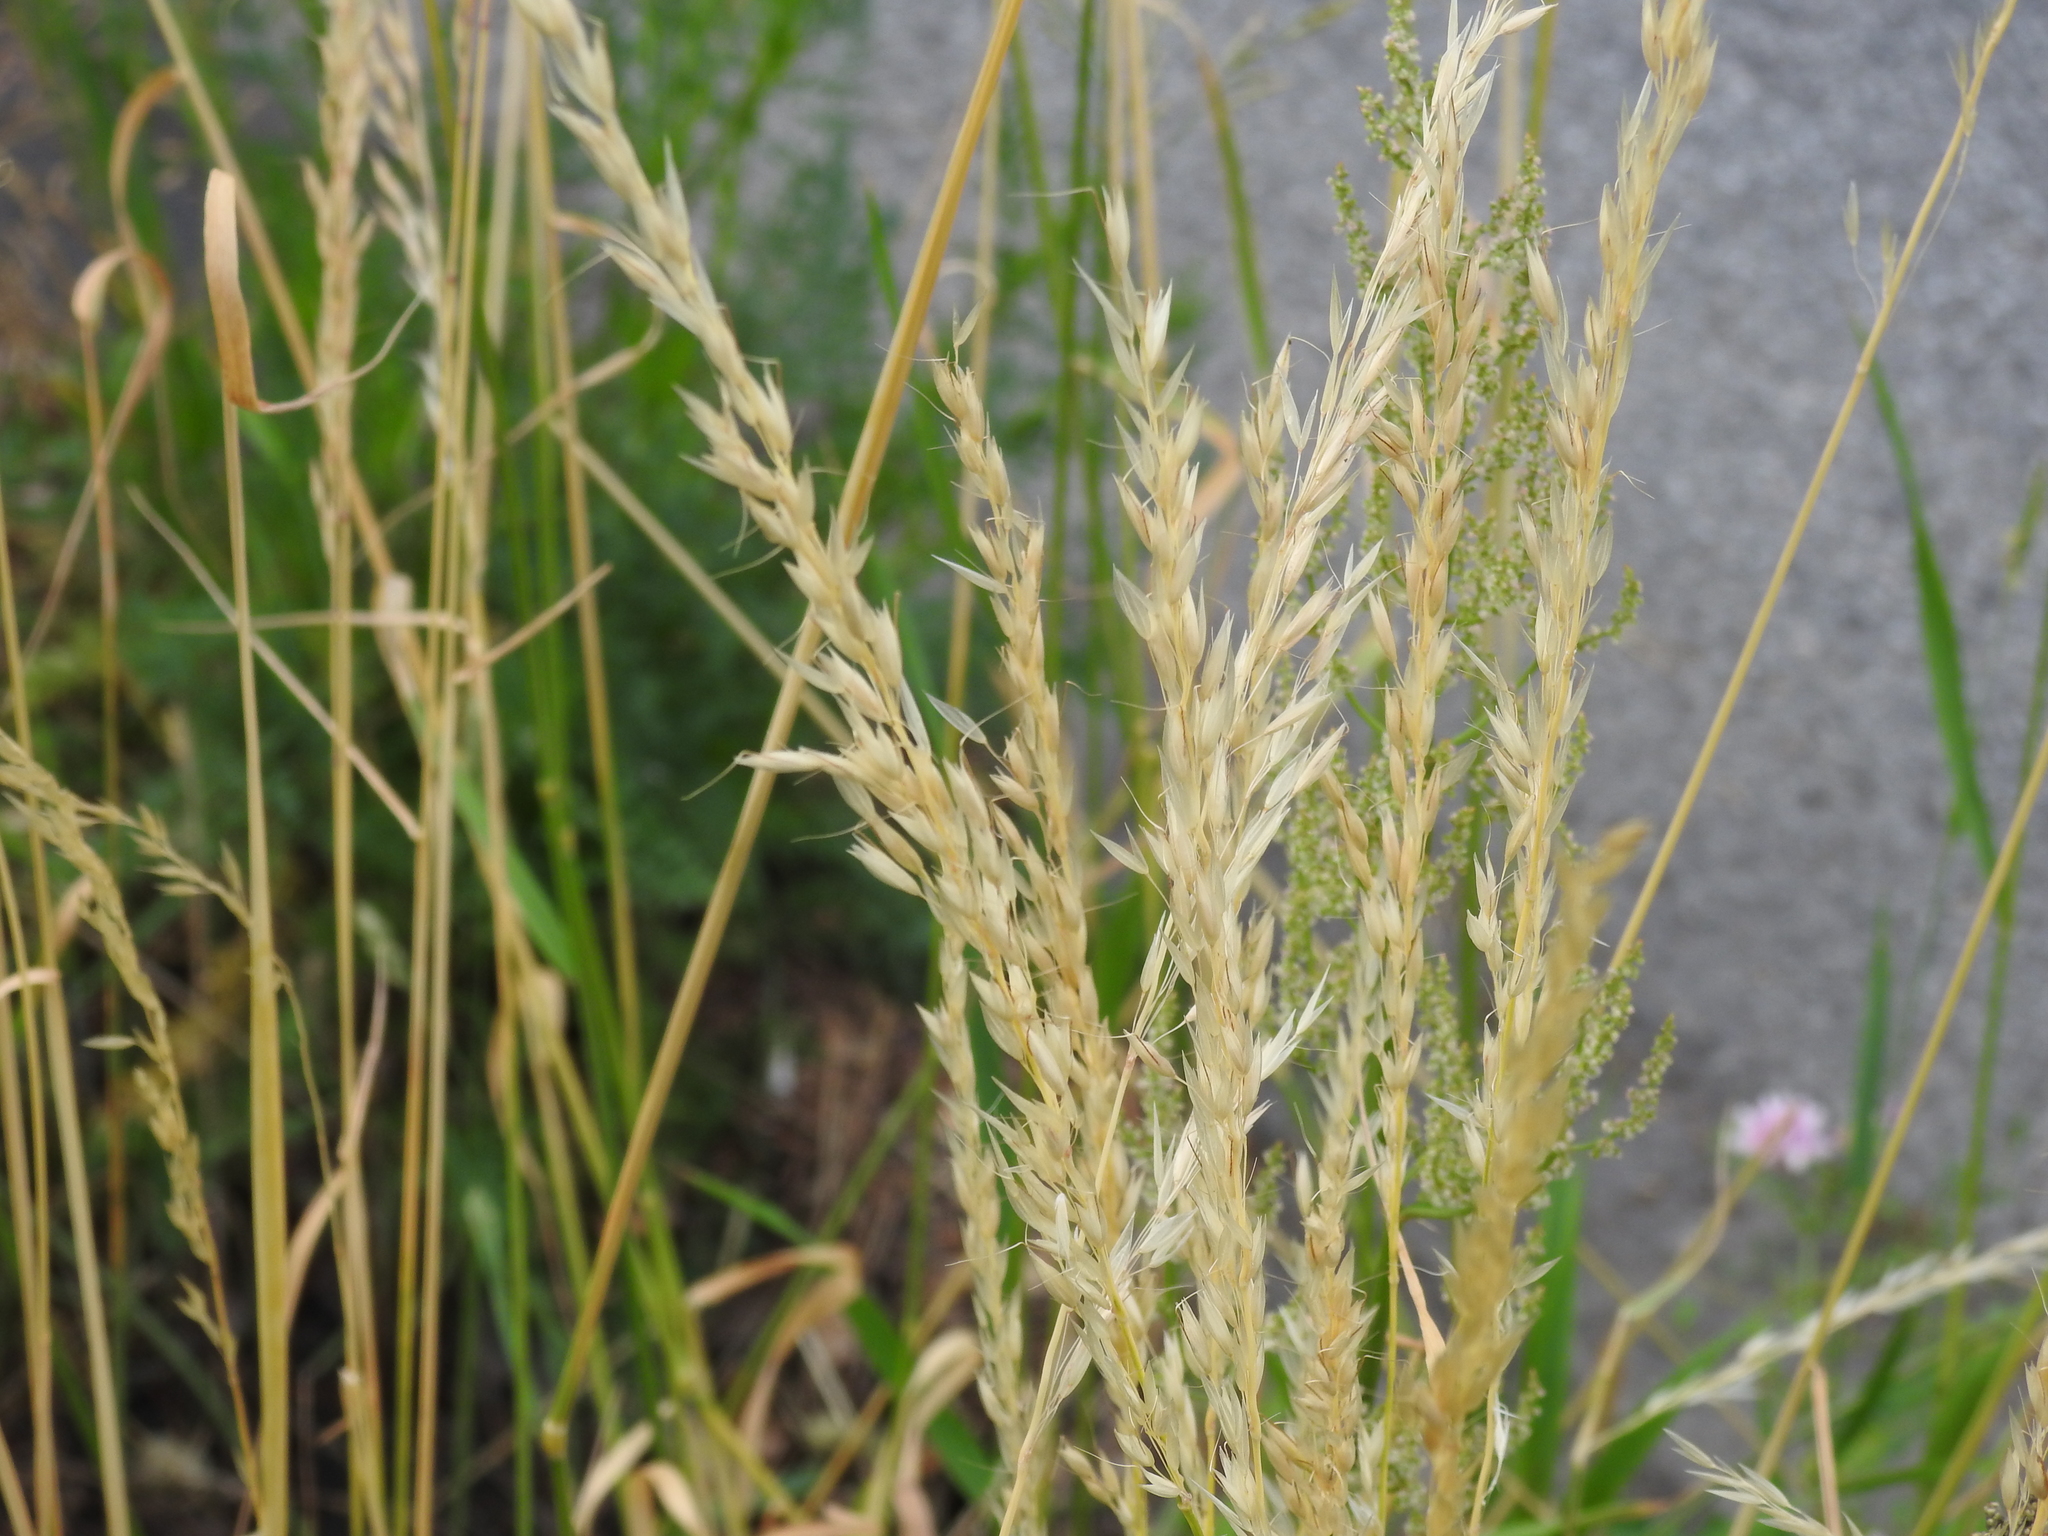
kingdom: Plantae
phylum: Tracheophyta
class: Liliopsida
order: Poales
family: Poaceae
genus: Arrhenatherum
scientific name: Arrhenatherum elatius
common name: Tall oatgrass
